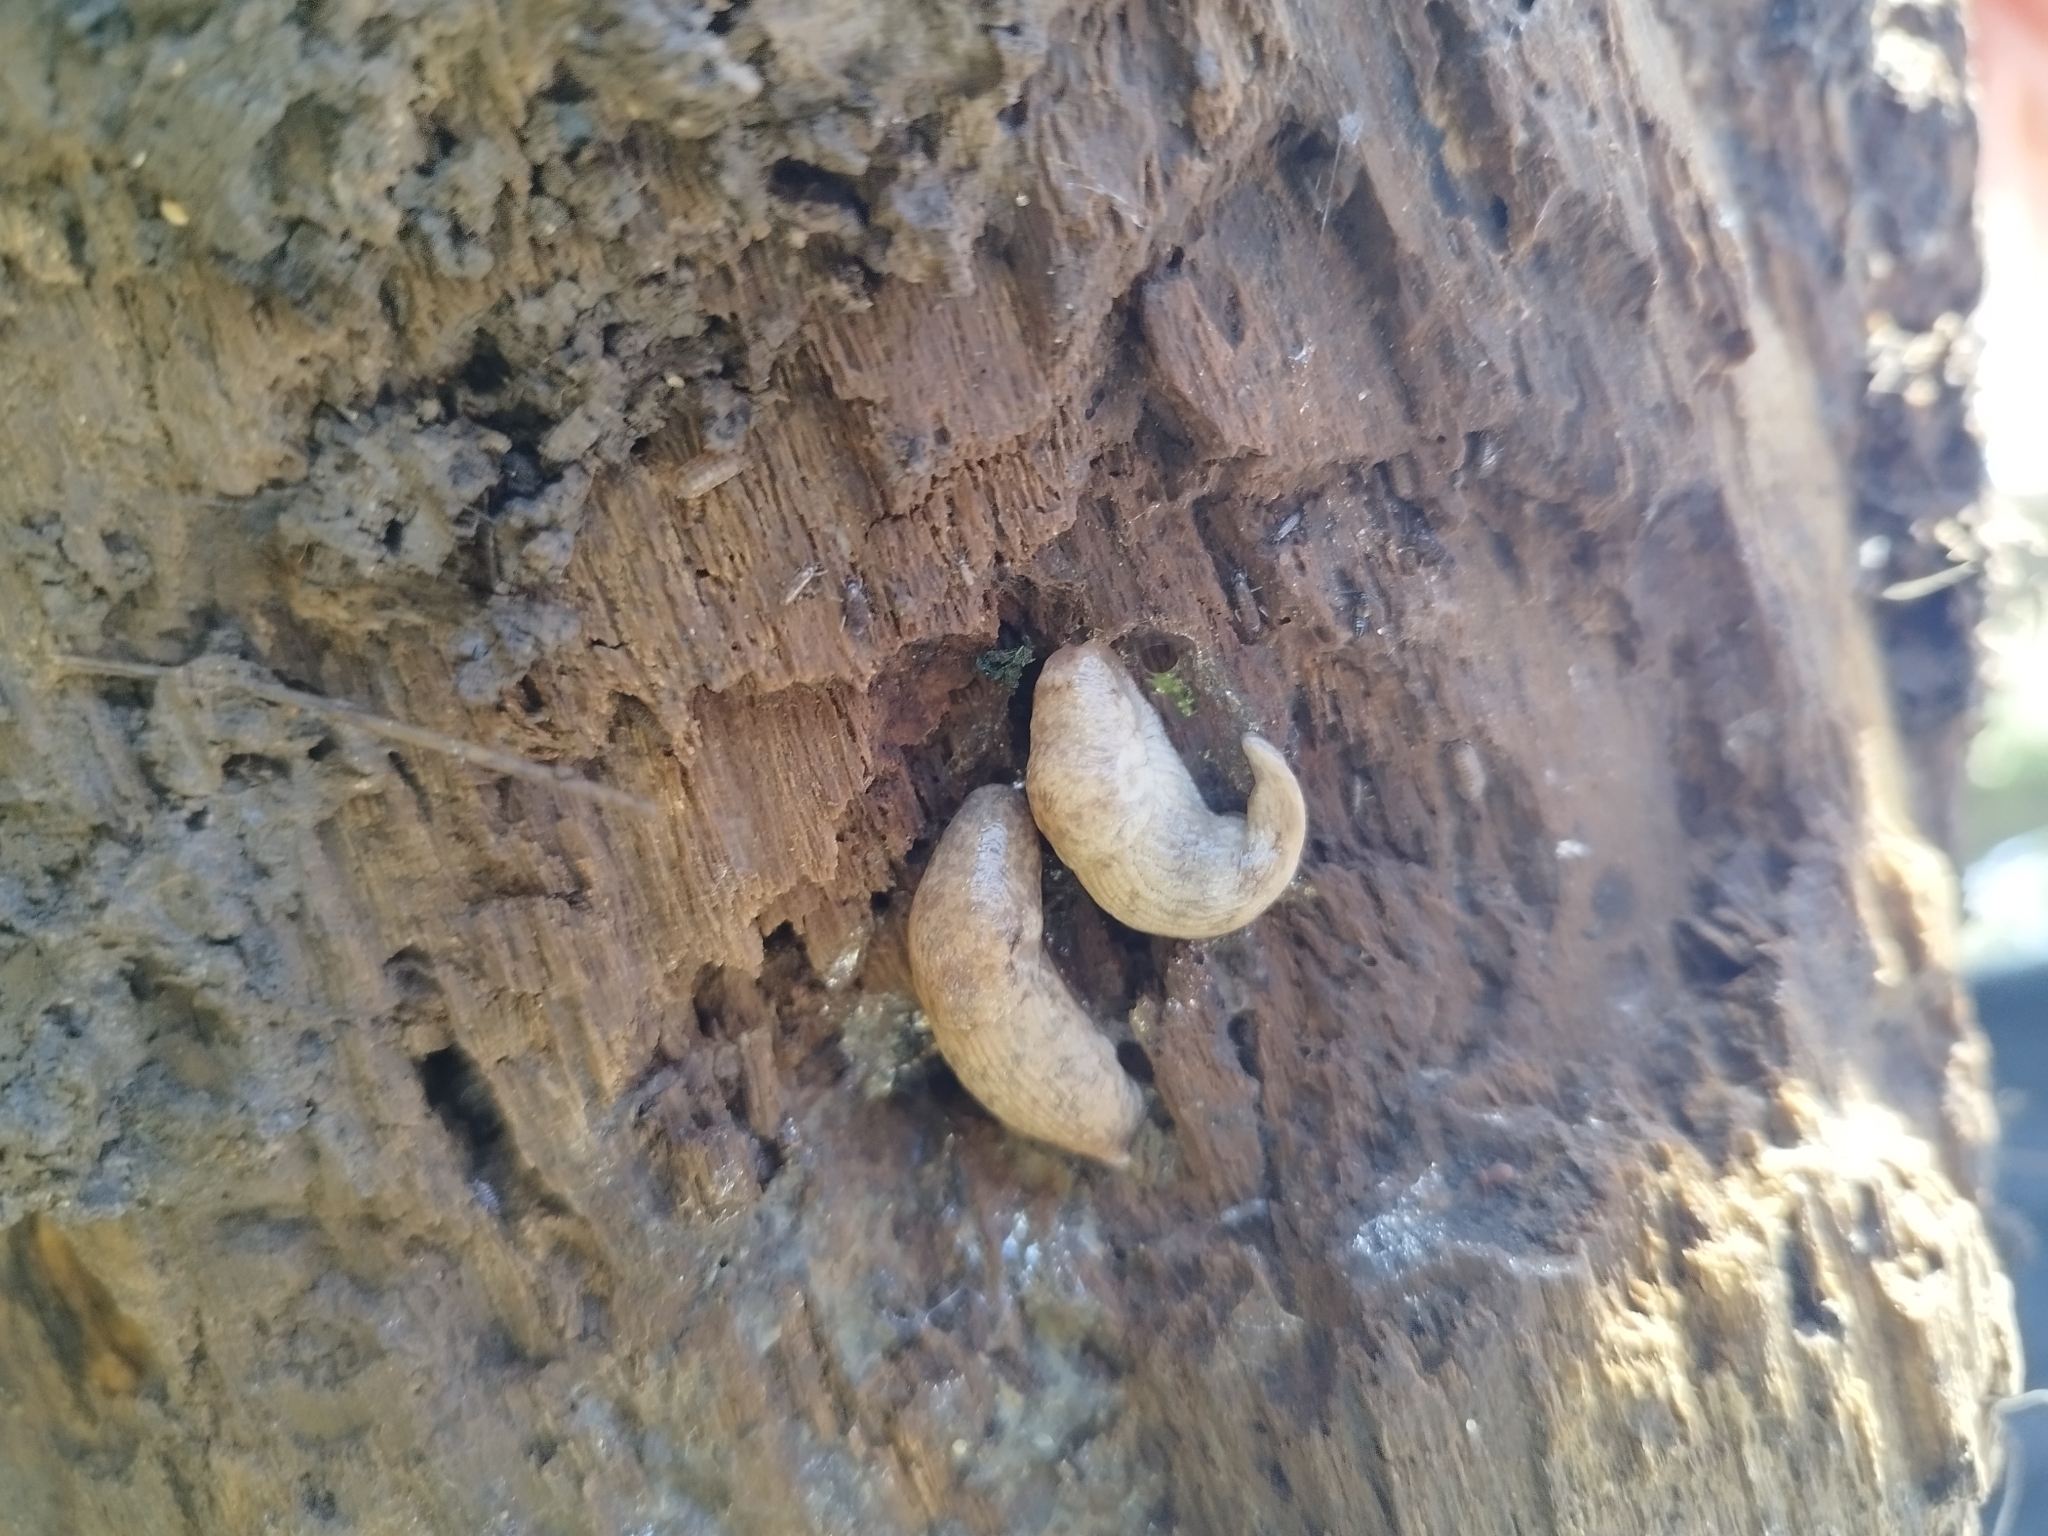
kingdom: Animalia
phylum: Mollusca
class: Gastropoda
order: Stylommatophora
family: Agriolimacidae
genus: Deroceras
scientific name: Deroceras reticulatum
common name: Gray field slug
